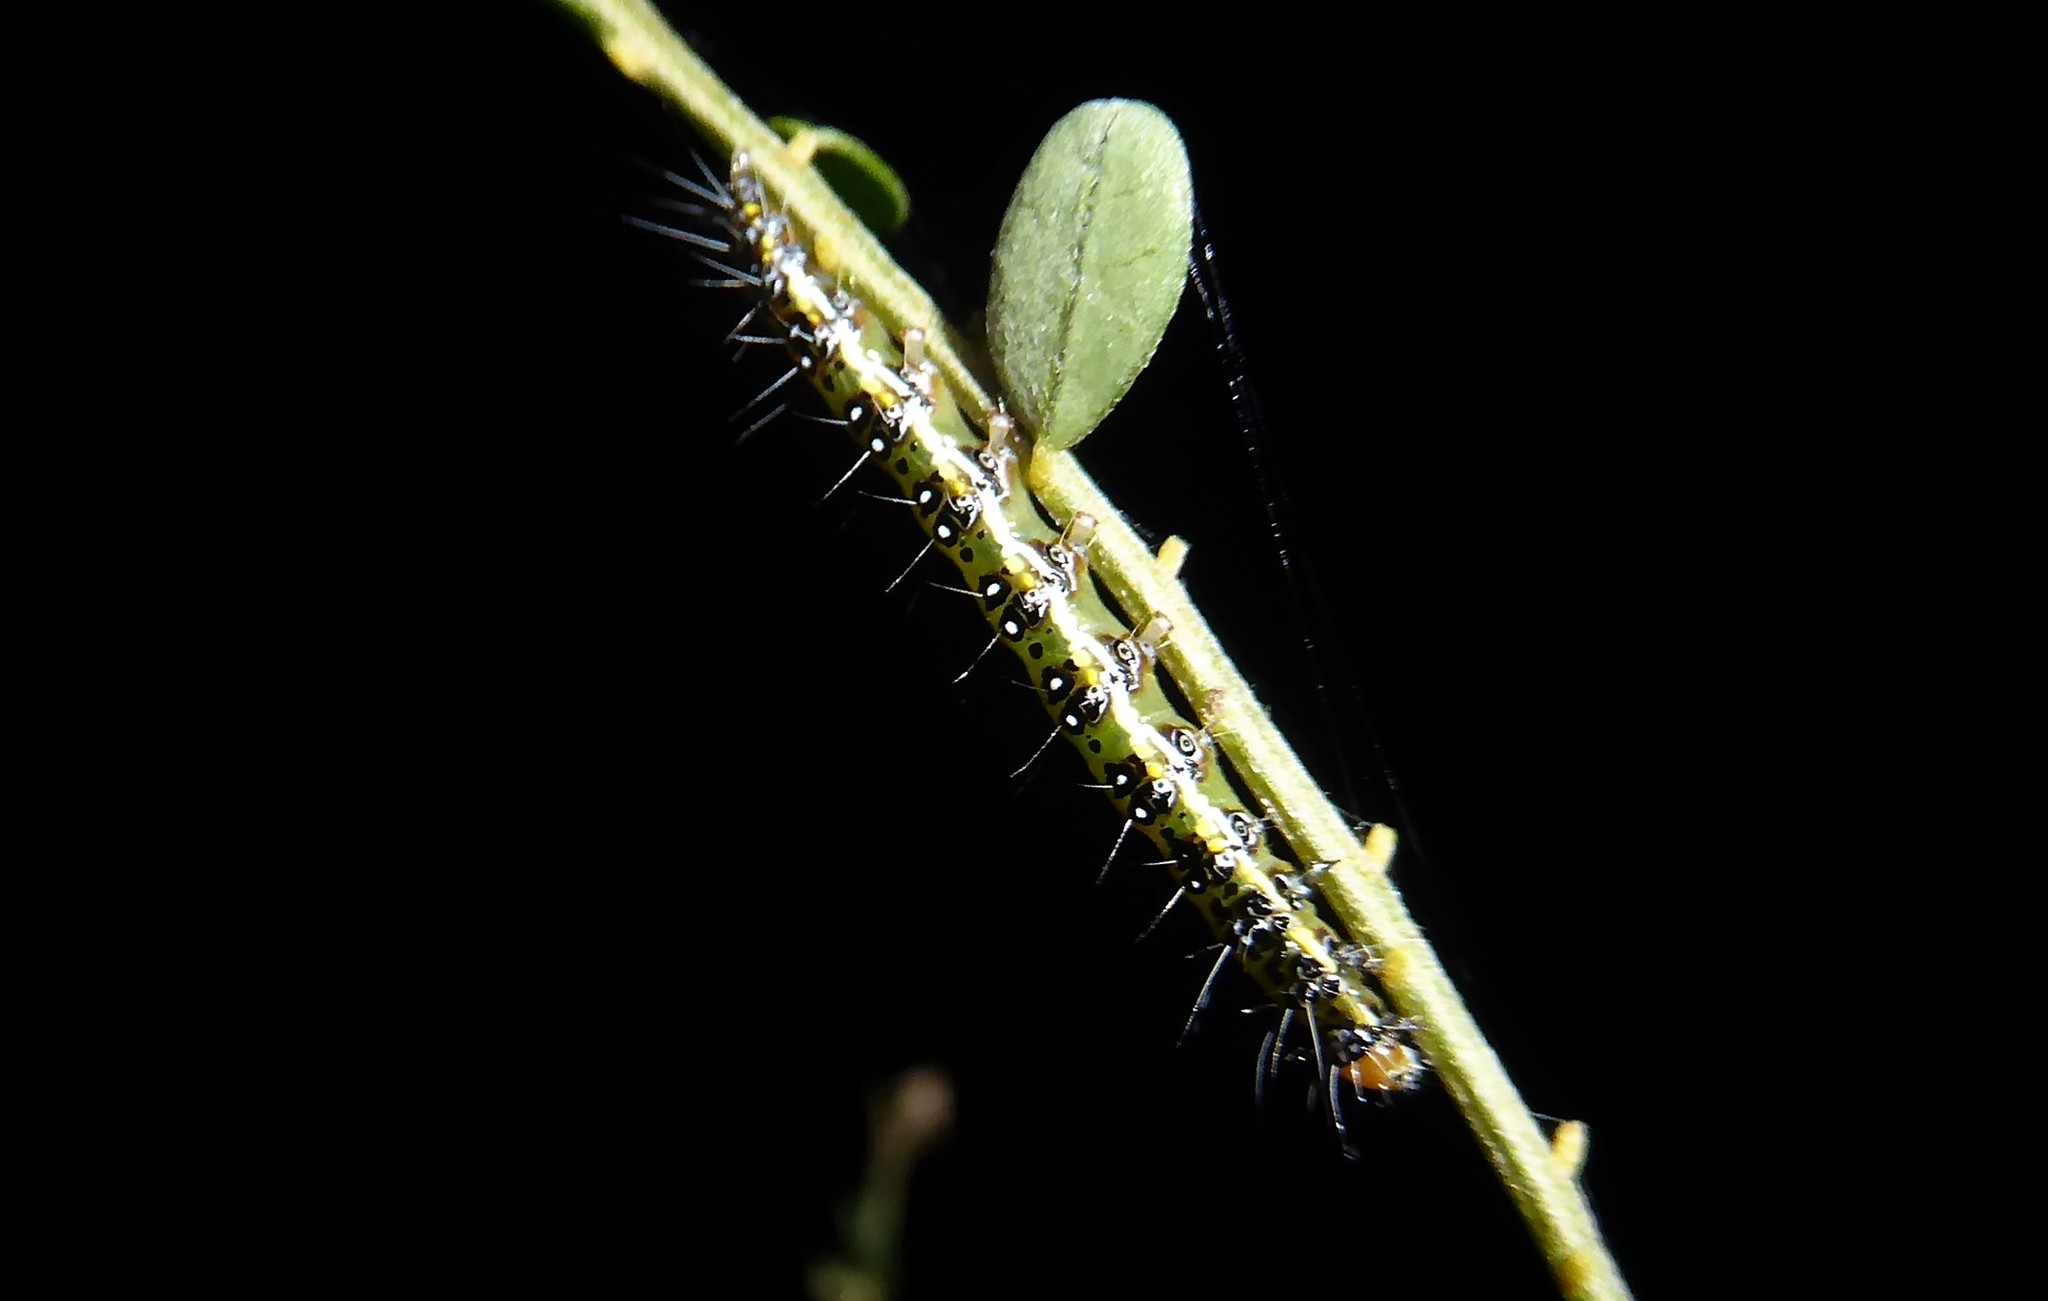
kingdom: Animalia
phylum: Arthropoda
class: Insecta
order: Lepidoptera
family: Crambidae
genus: Uresiphita
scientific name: Uresiphita
